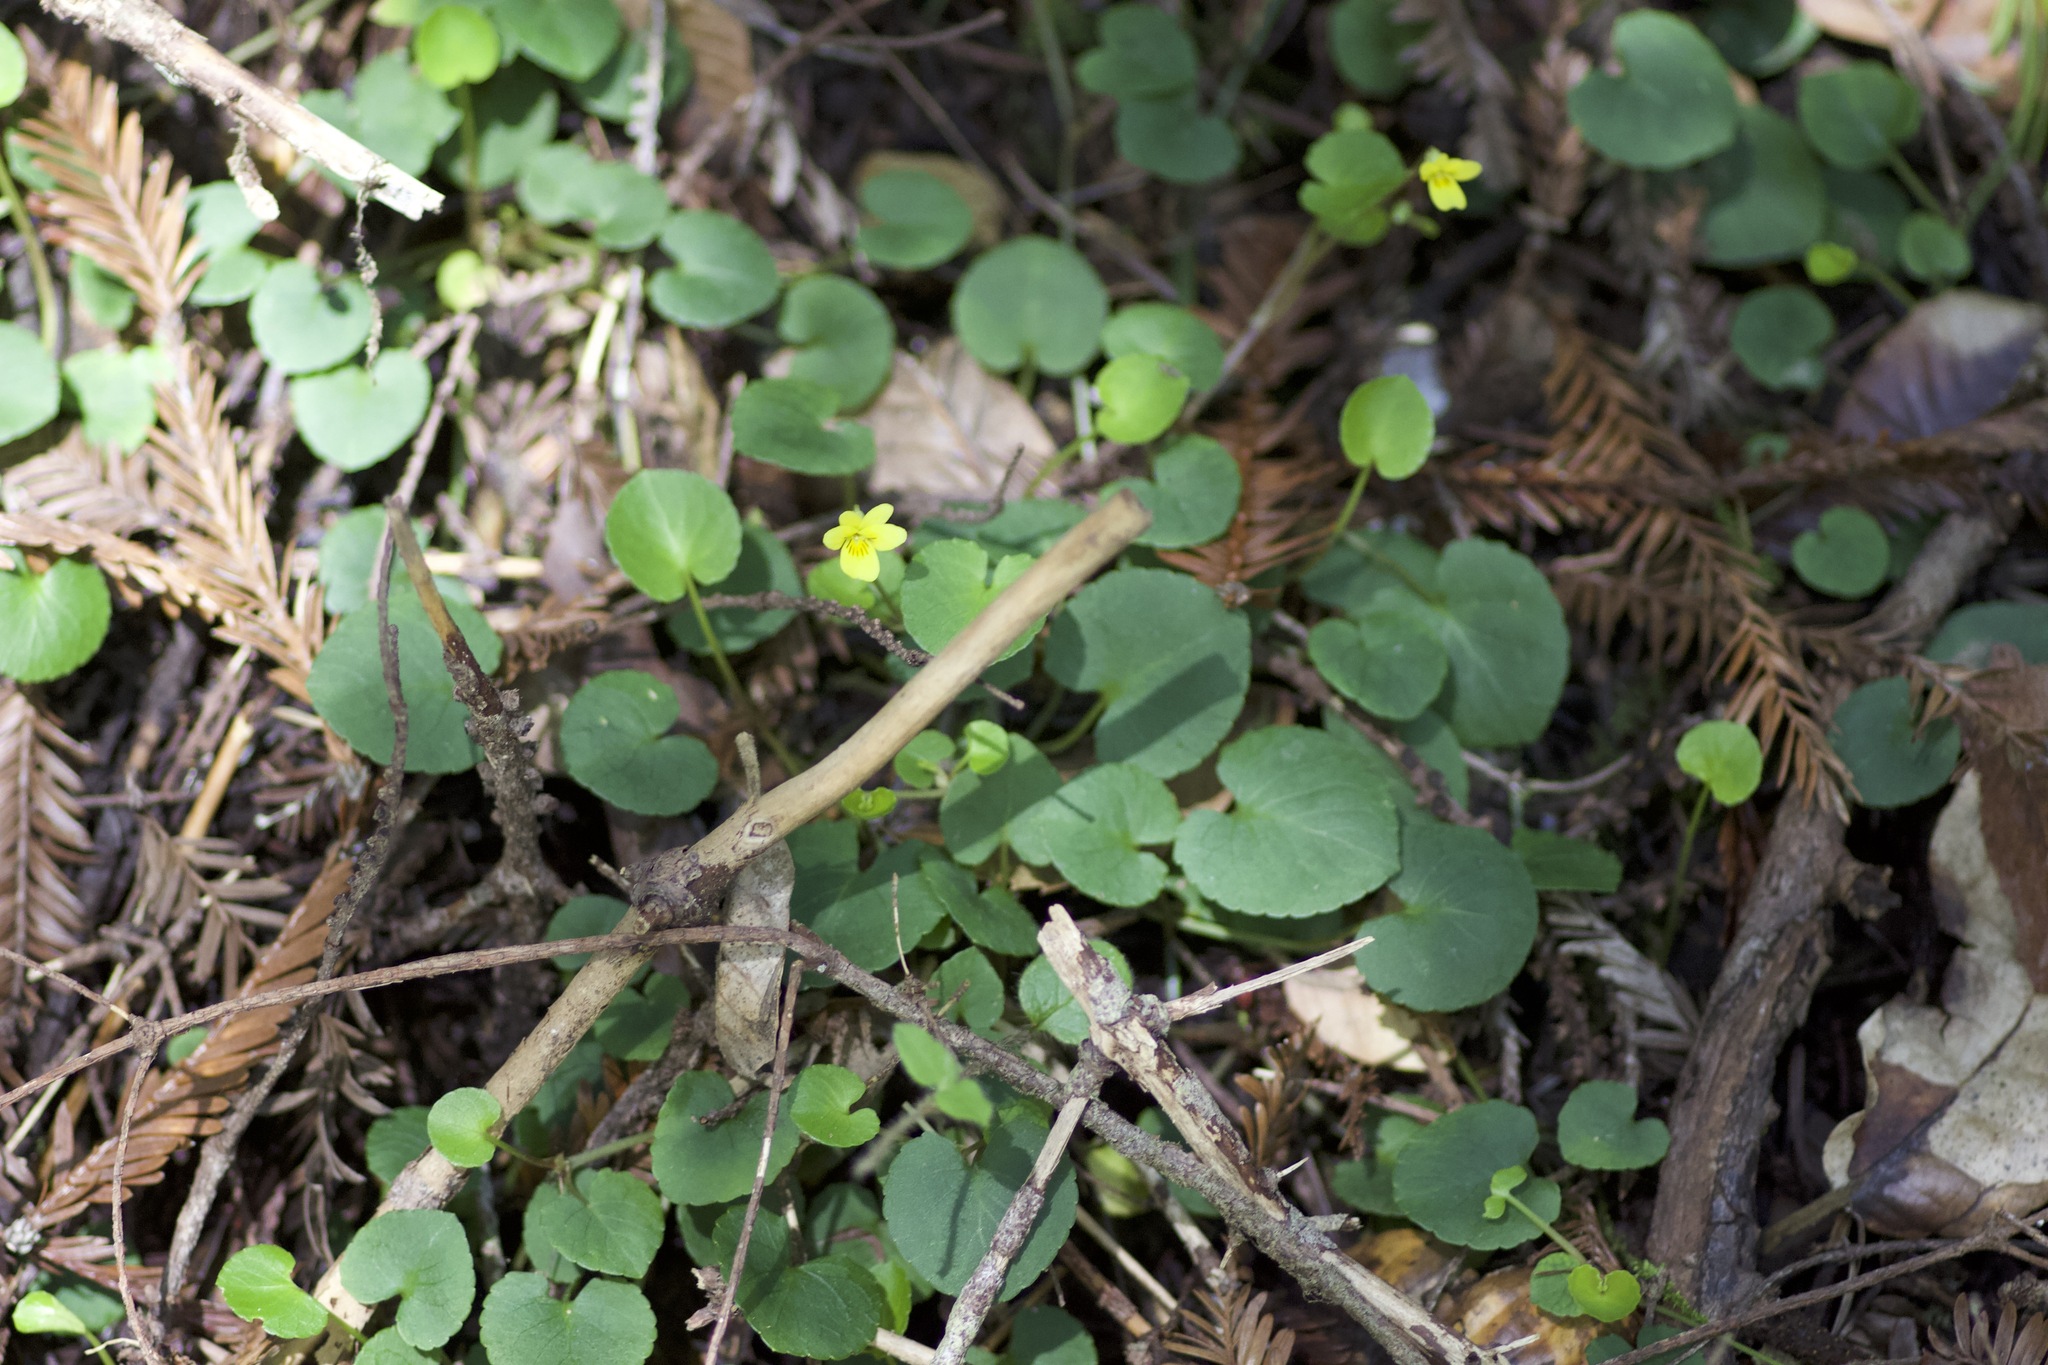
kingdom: Plantae
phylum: Tracheophyta
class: Magnoliopsida
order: Malpighiales
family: Violaceae
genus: Viola
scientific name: Viola sempervirens
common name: Evergreen violet
